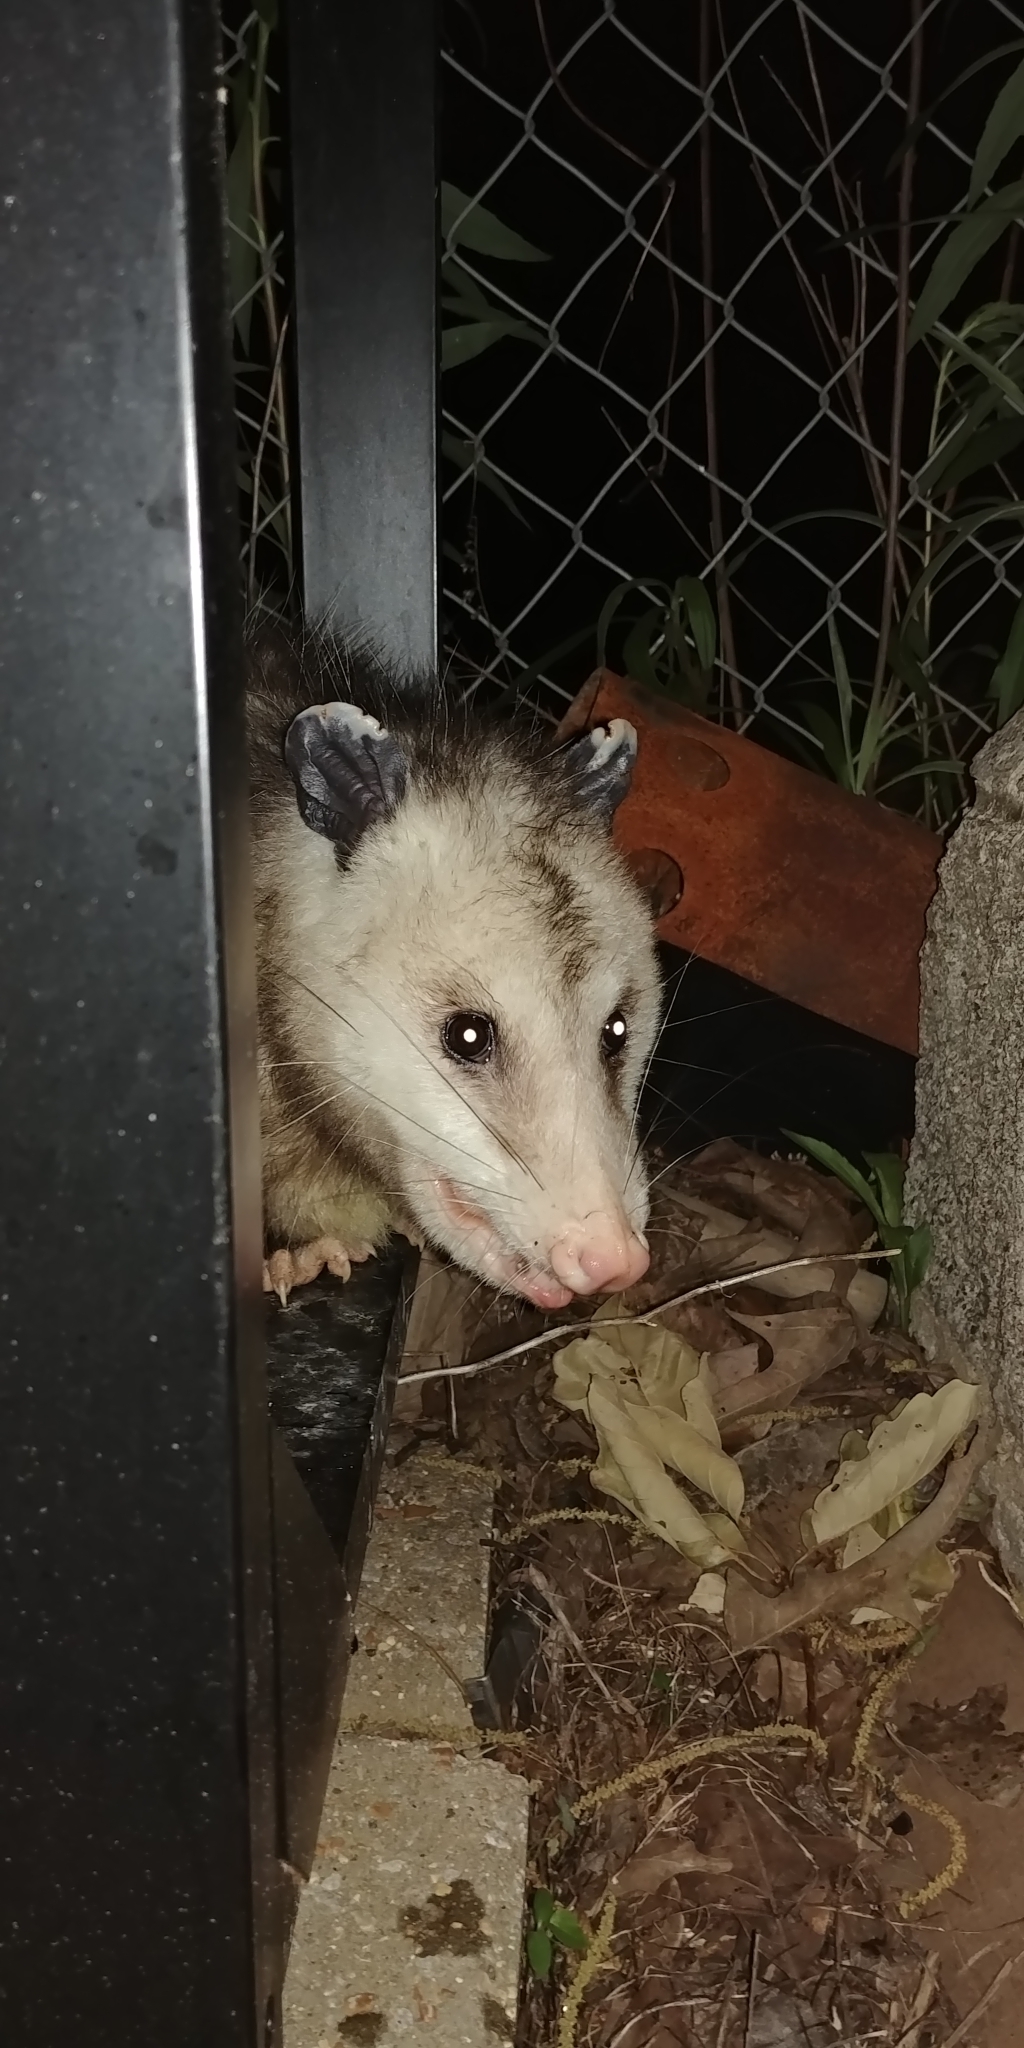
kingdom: Animalia
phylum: Chordata
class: Mammalia
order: Didelphimorphia
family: Didelphidae
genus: Didelphis
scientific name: Didelphis virginiana
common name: Virginia opossum
